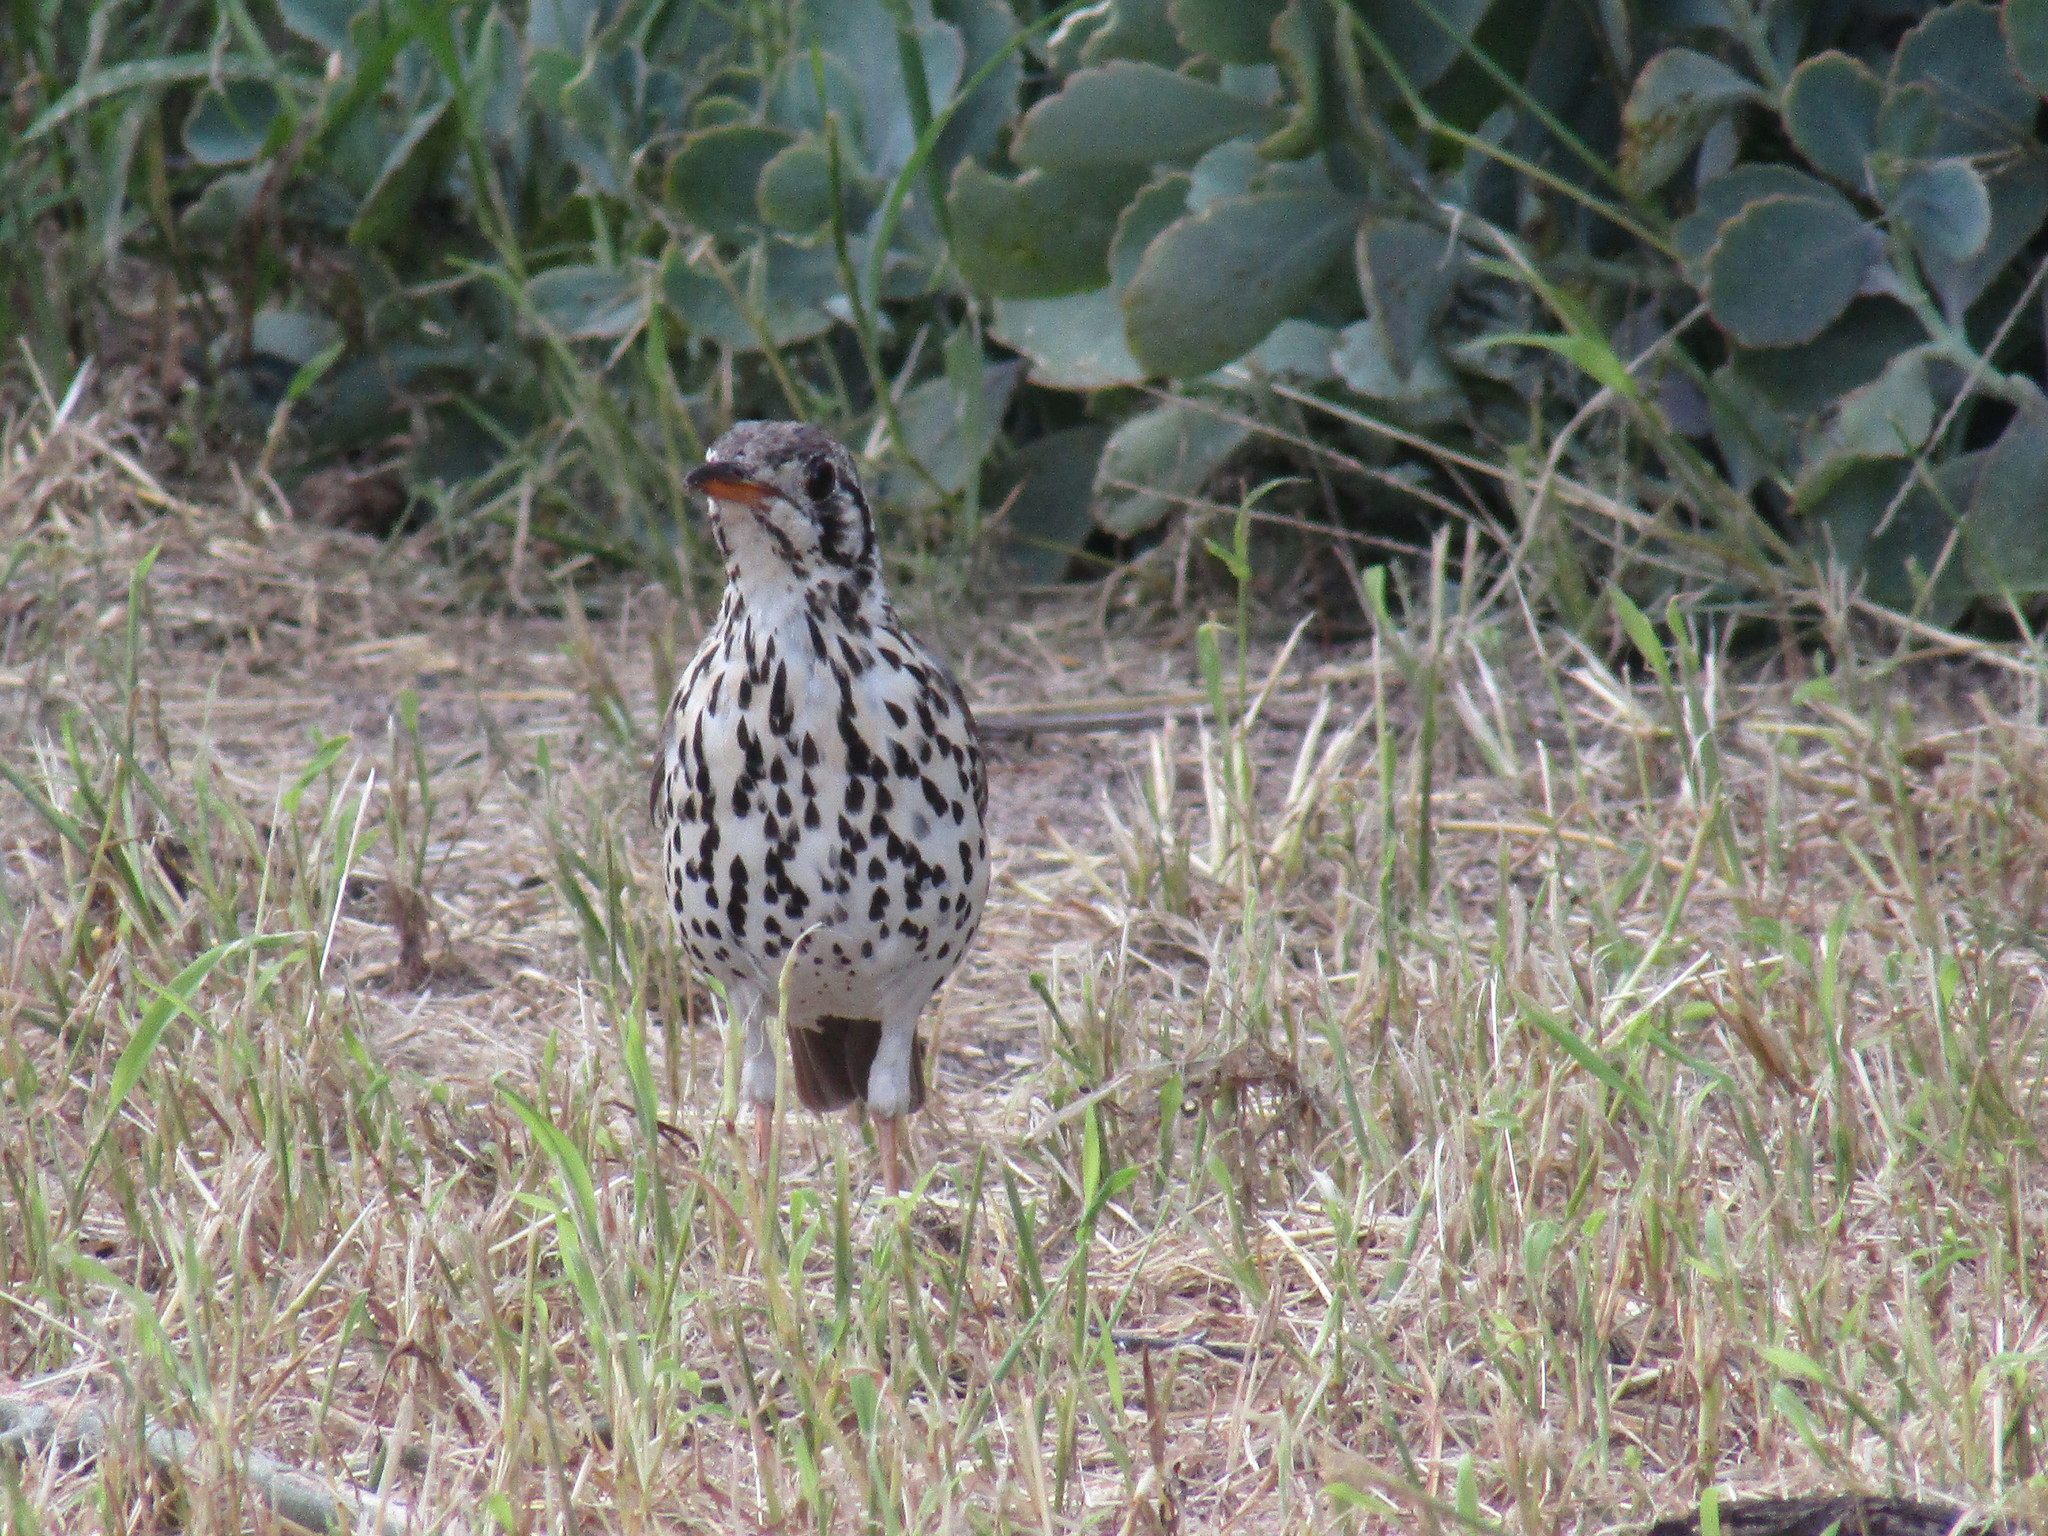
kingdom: Animalia
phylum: Chordata
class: Aves
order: Passeriformes
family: Turdidae
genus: Psophocichla
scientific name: Psophocichla litsitsirupa
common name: Groundscraper thrush
